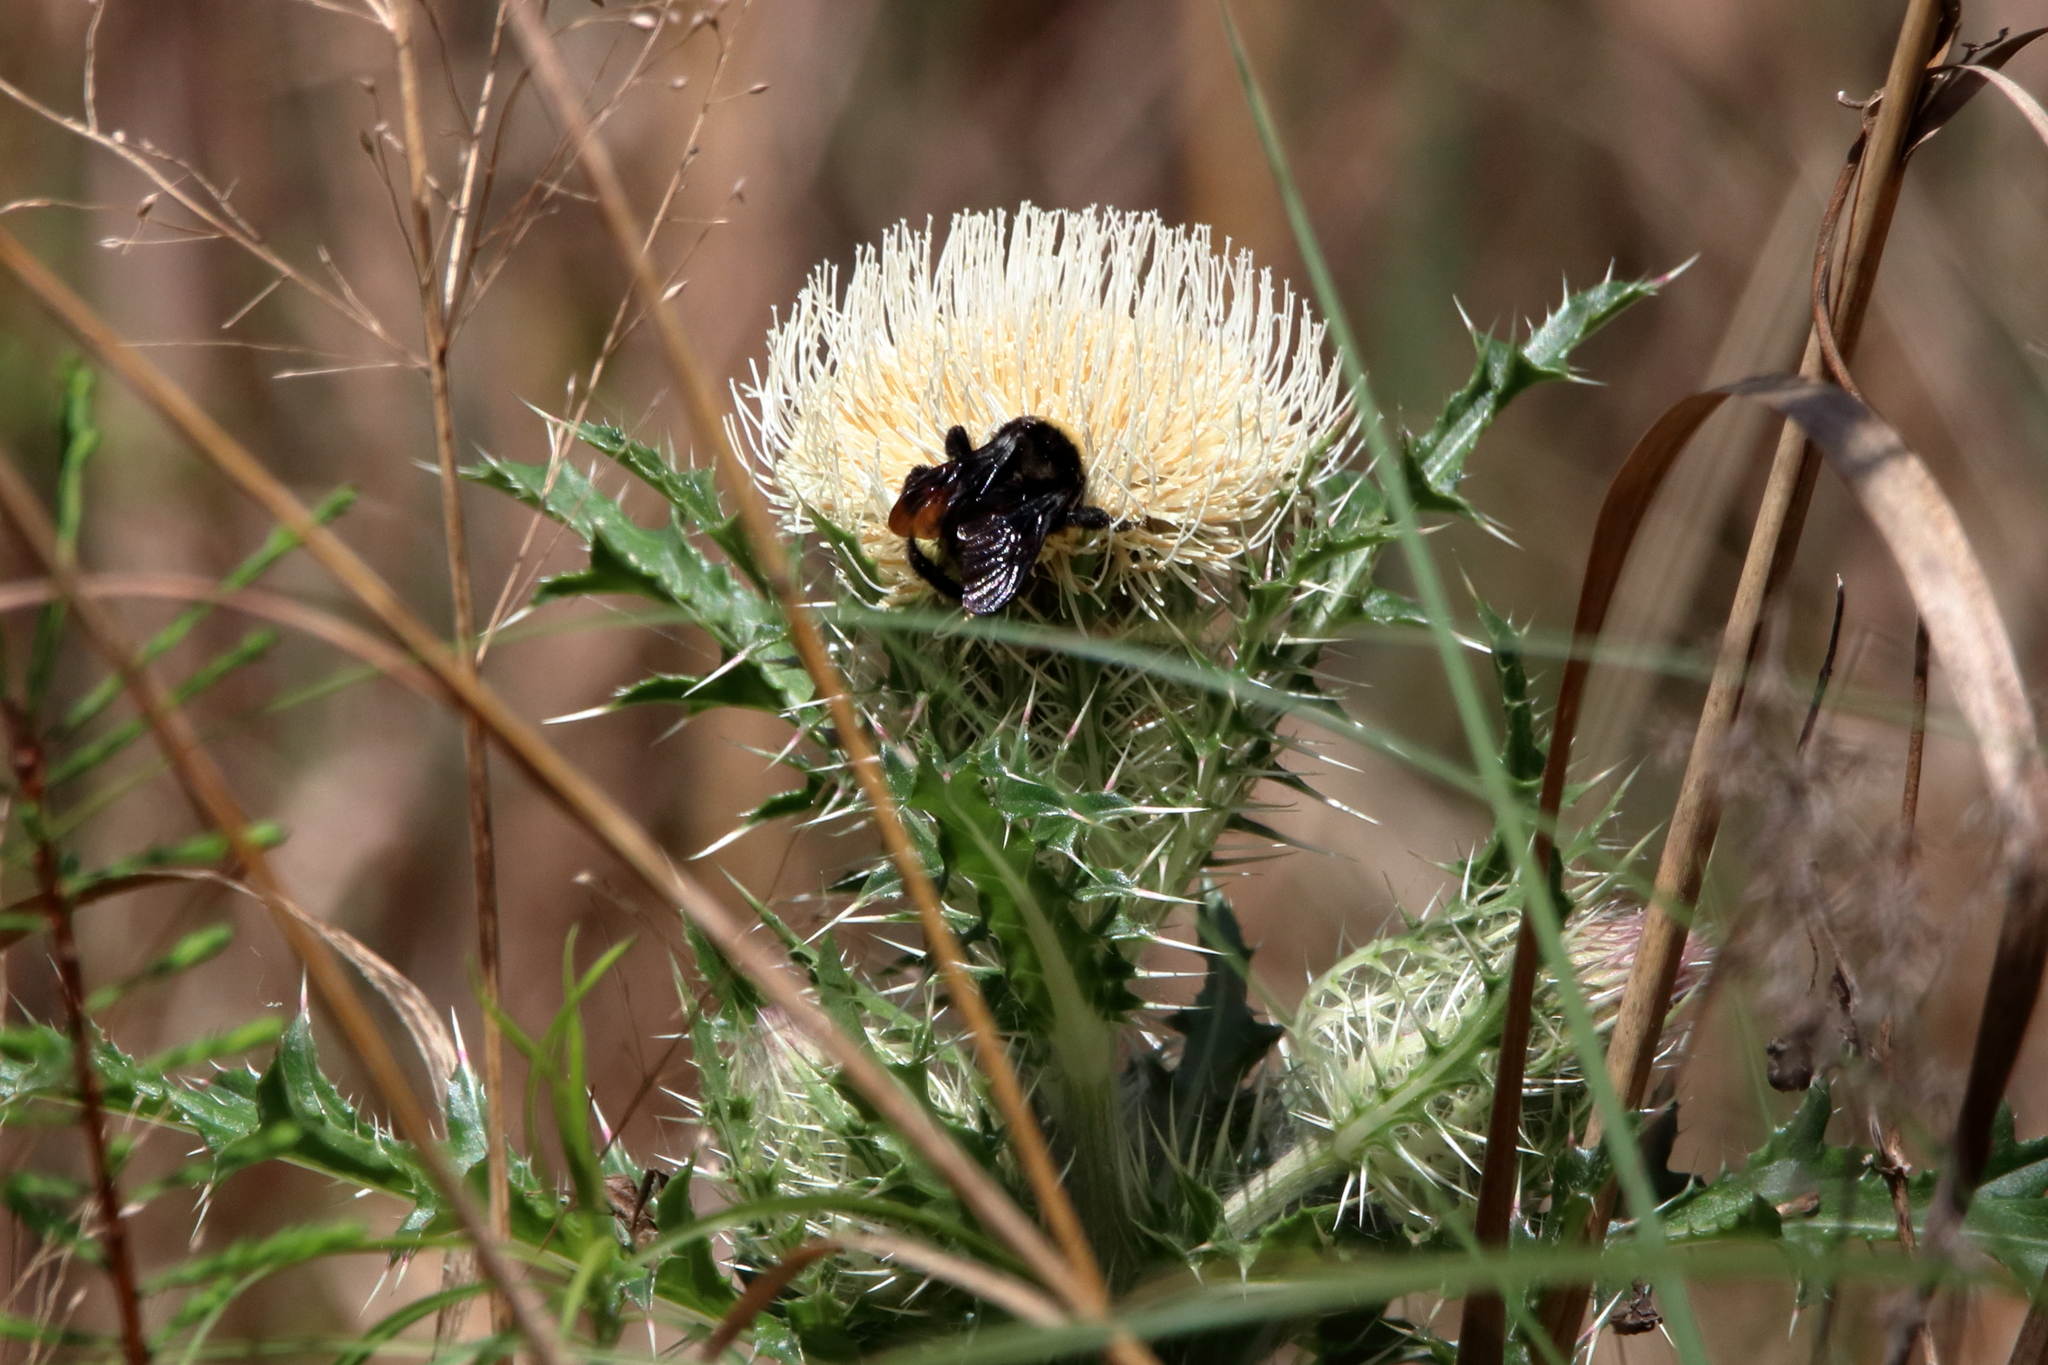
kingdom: Animalia
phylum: Arthropoda
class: Insecta
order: Hymenoptera
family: Apidae
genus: Bombus
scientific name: Bombus pensylvanicus
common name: Bumble bee
